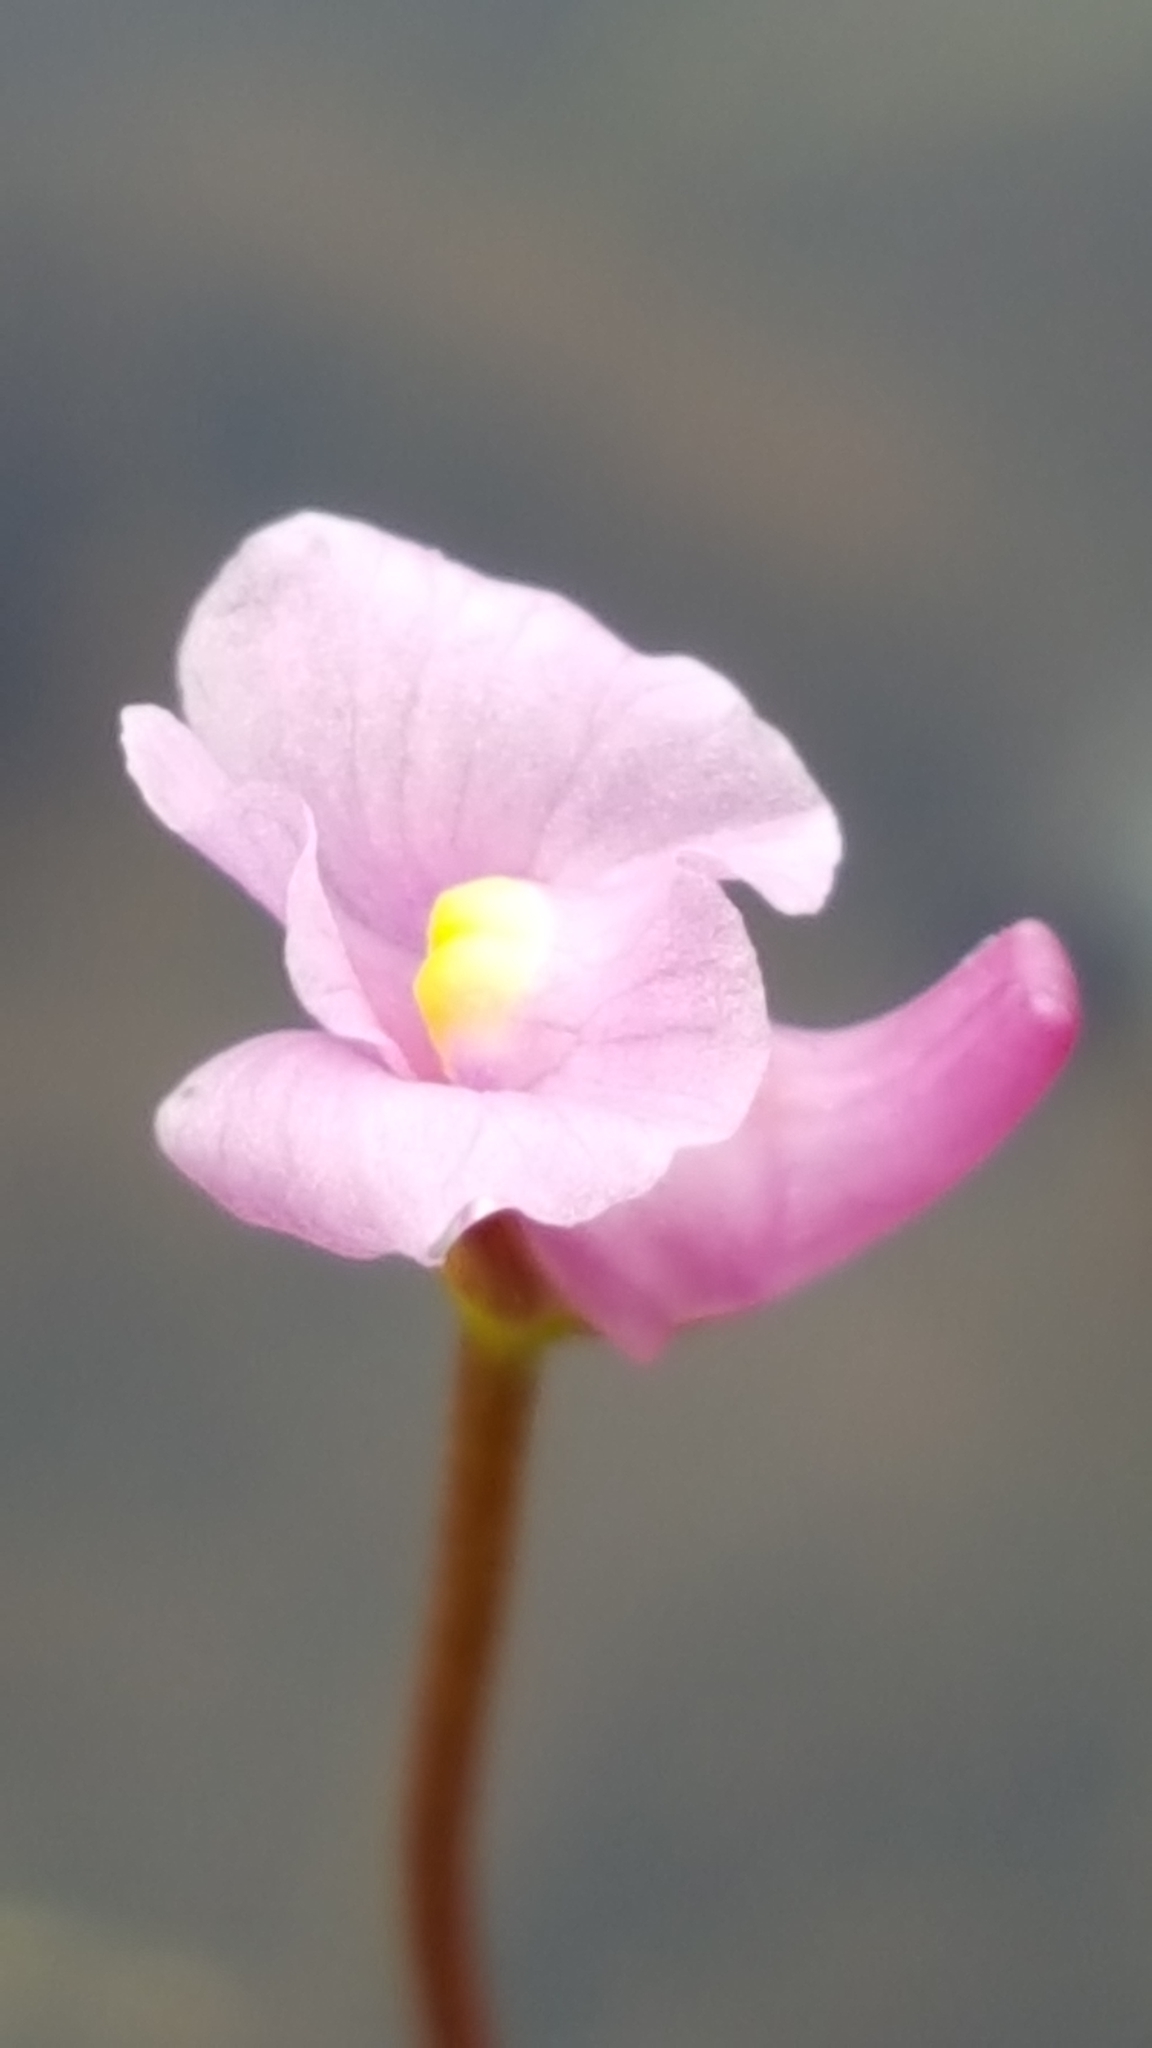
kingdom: Plantae
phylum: Tracheophyta
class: Magnoliopsida
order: Lamiales
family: Lentibulariaceae
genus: Utricularia
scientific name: Utricularia resupinata
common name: Northeastern bladderwort
